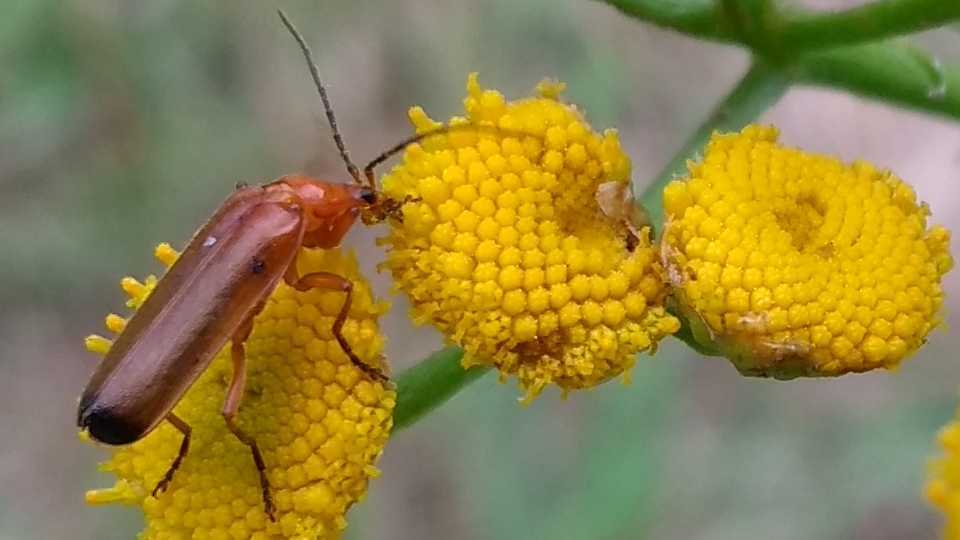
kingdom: Animalia
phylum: Arthropoda
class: Insecta
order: Coleoptera
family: Cantharidae
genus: Rhagonycha
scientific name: Rhagonycha fulva
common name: Common red soldier beetle
